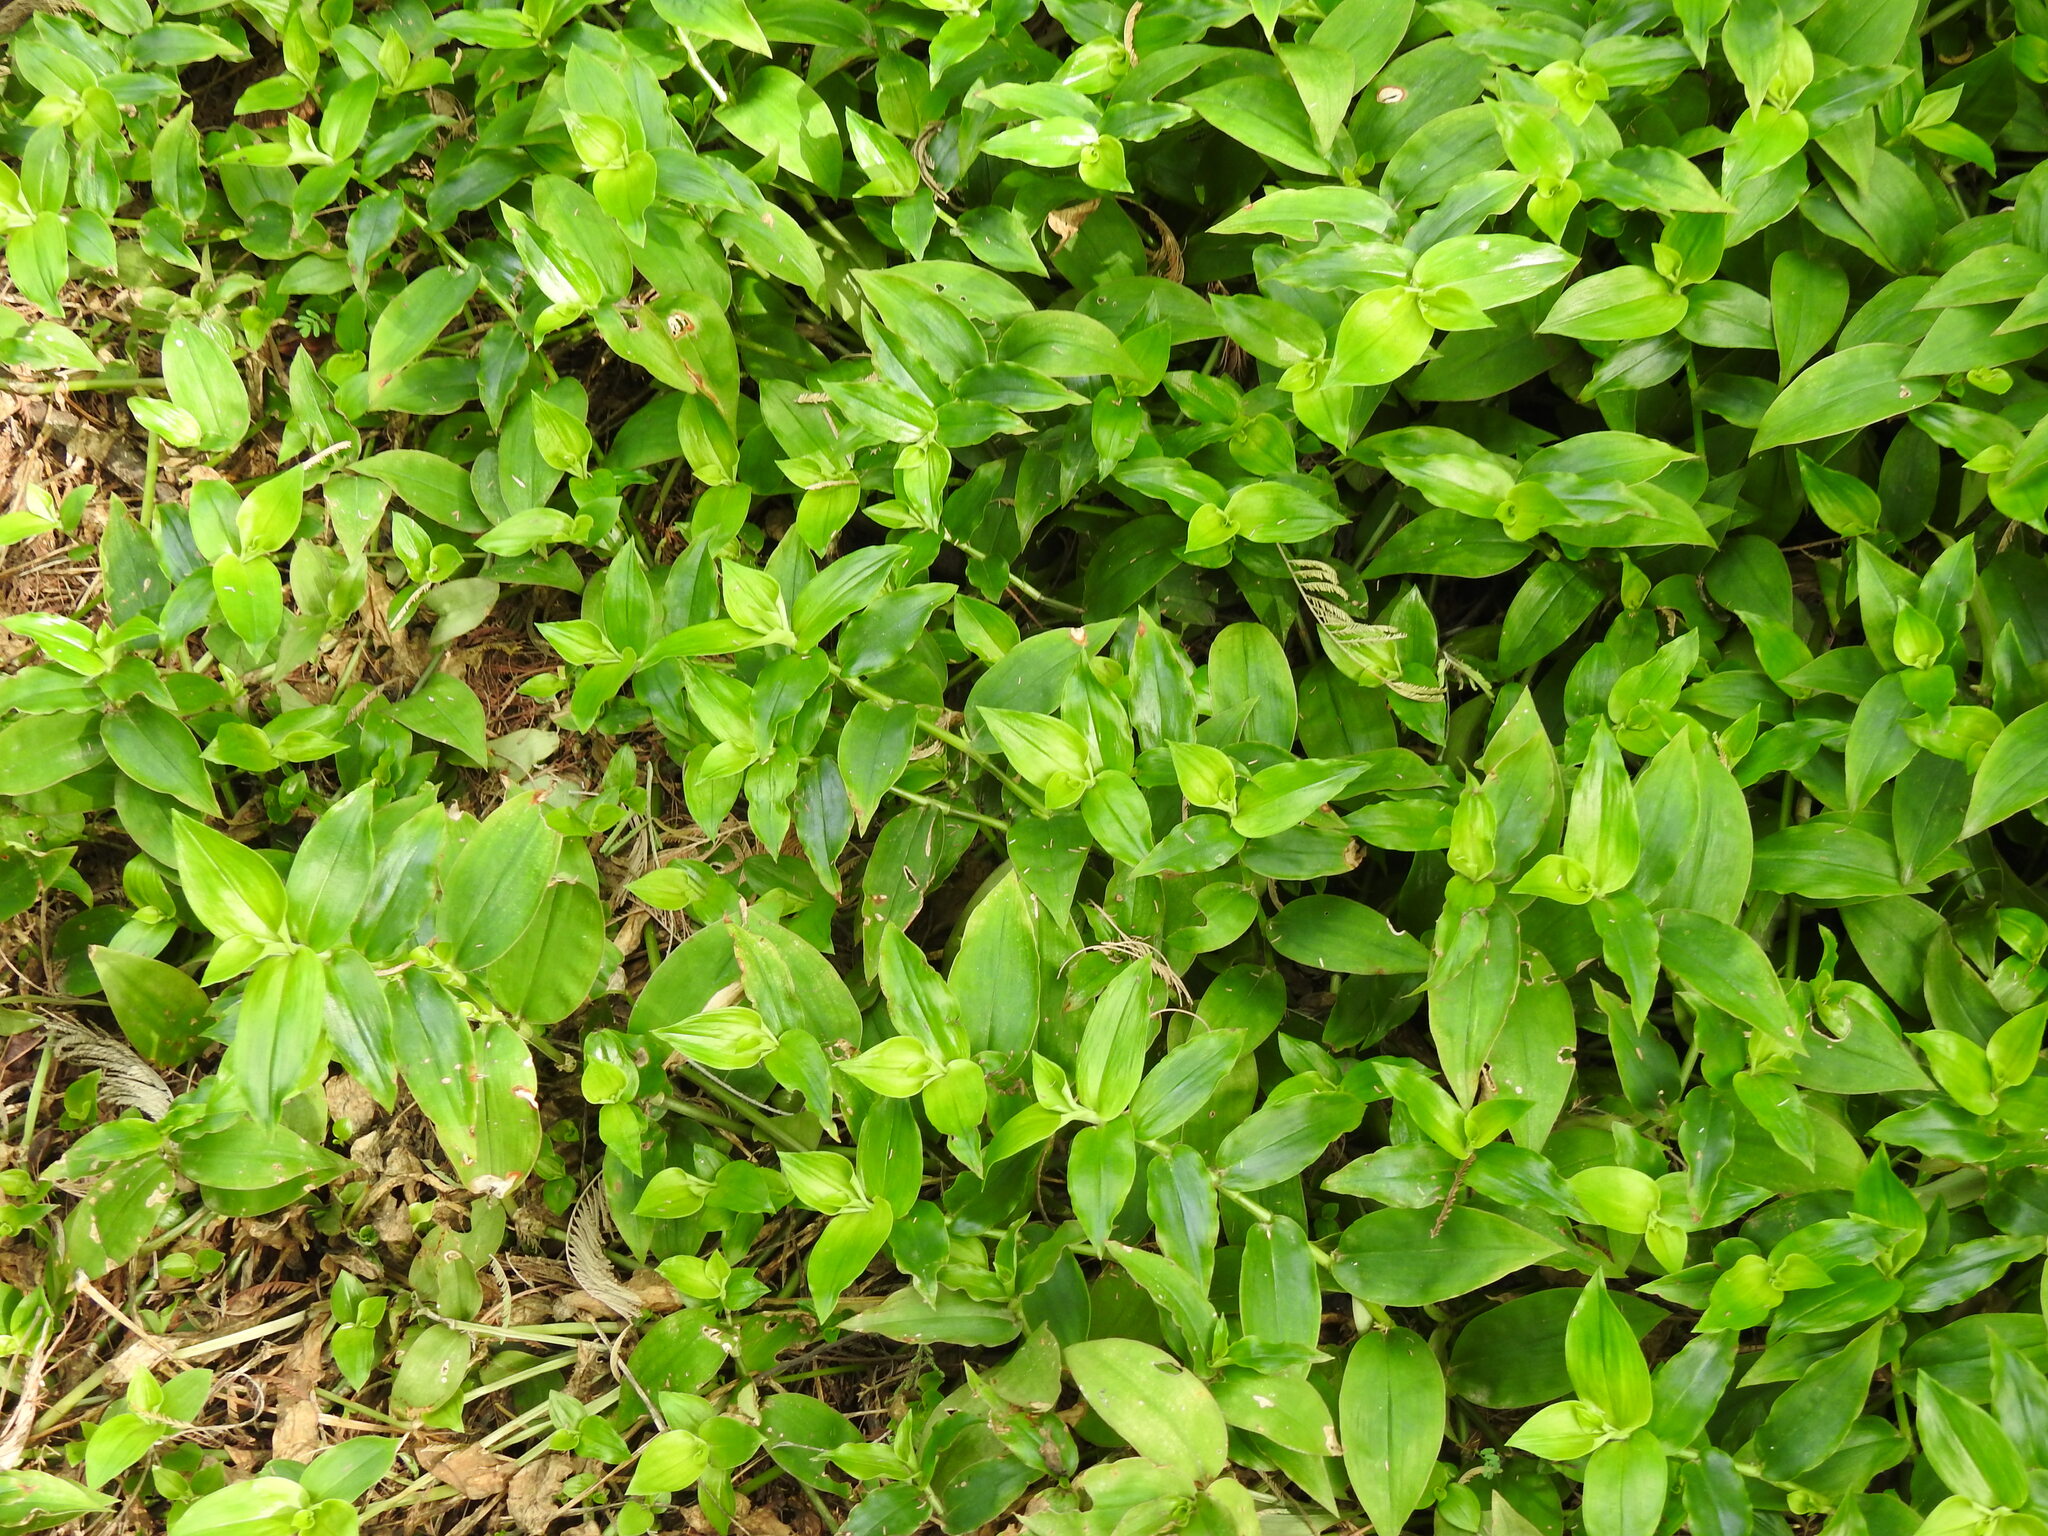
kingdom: Plantae
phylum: Tracheophyta
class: Liliopsida
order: Commelinales
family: Commelinaceae
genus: Tradescantia
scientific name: Tradescantia fluminensis
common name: Wandering-jew
